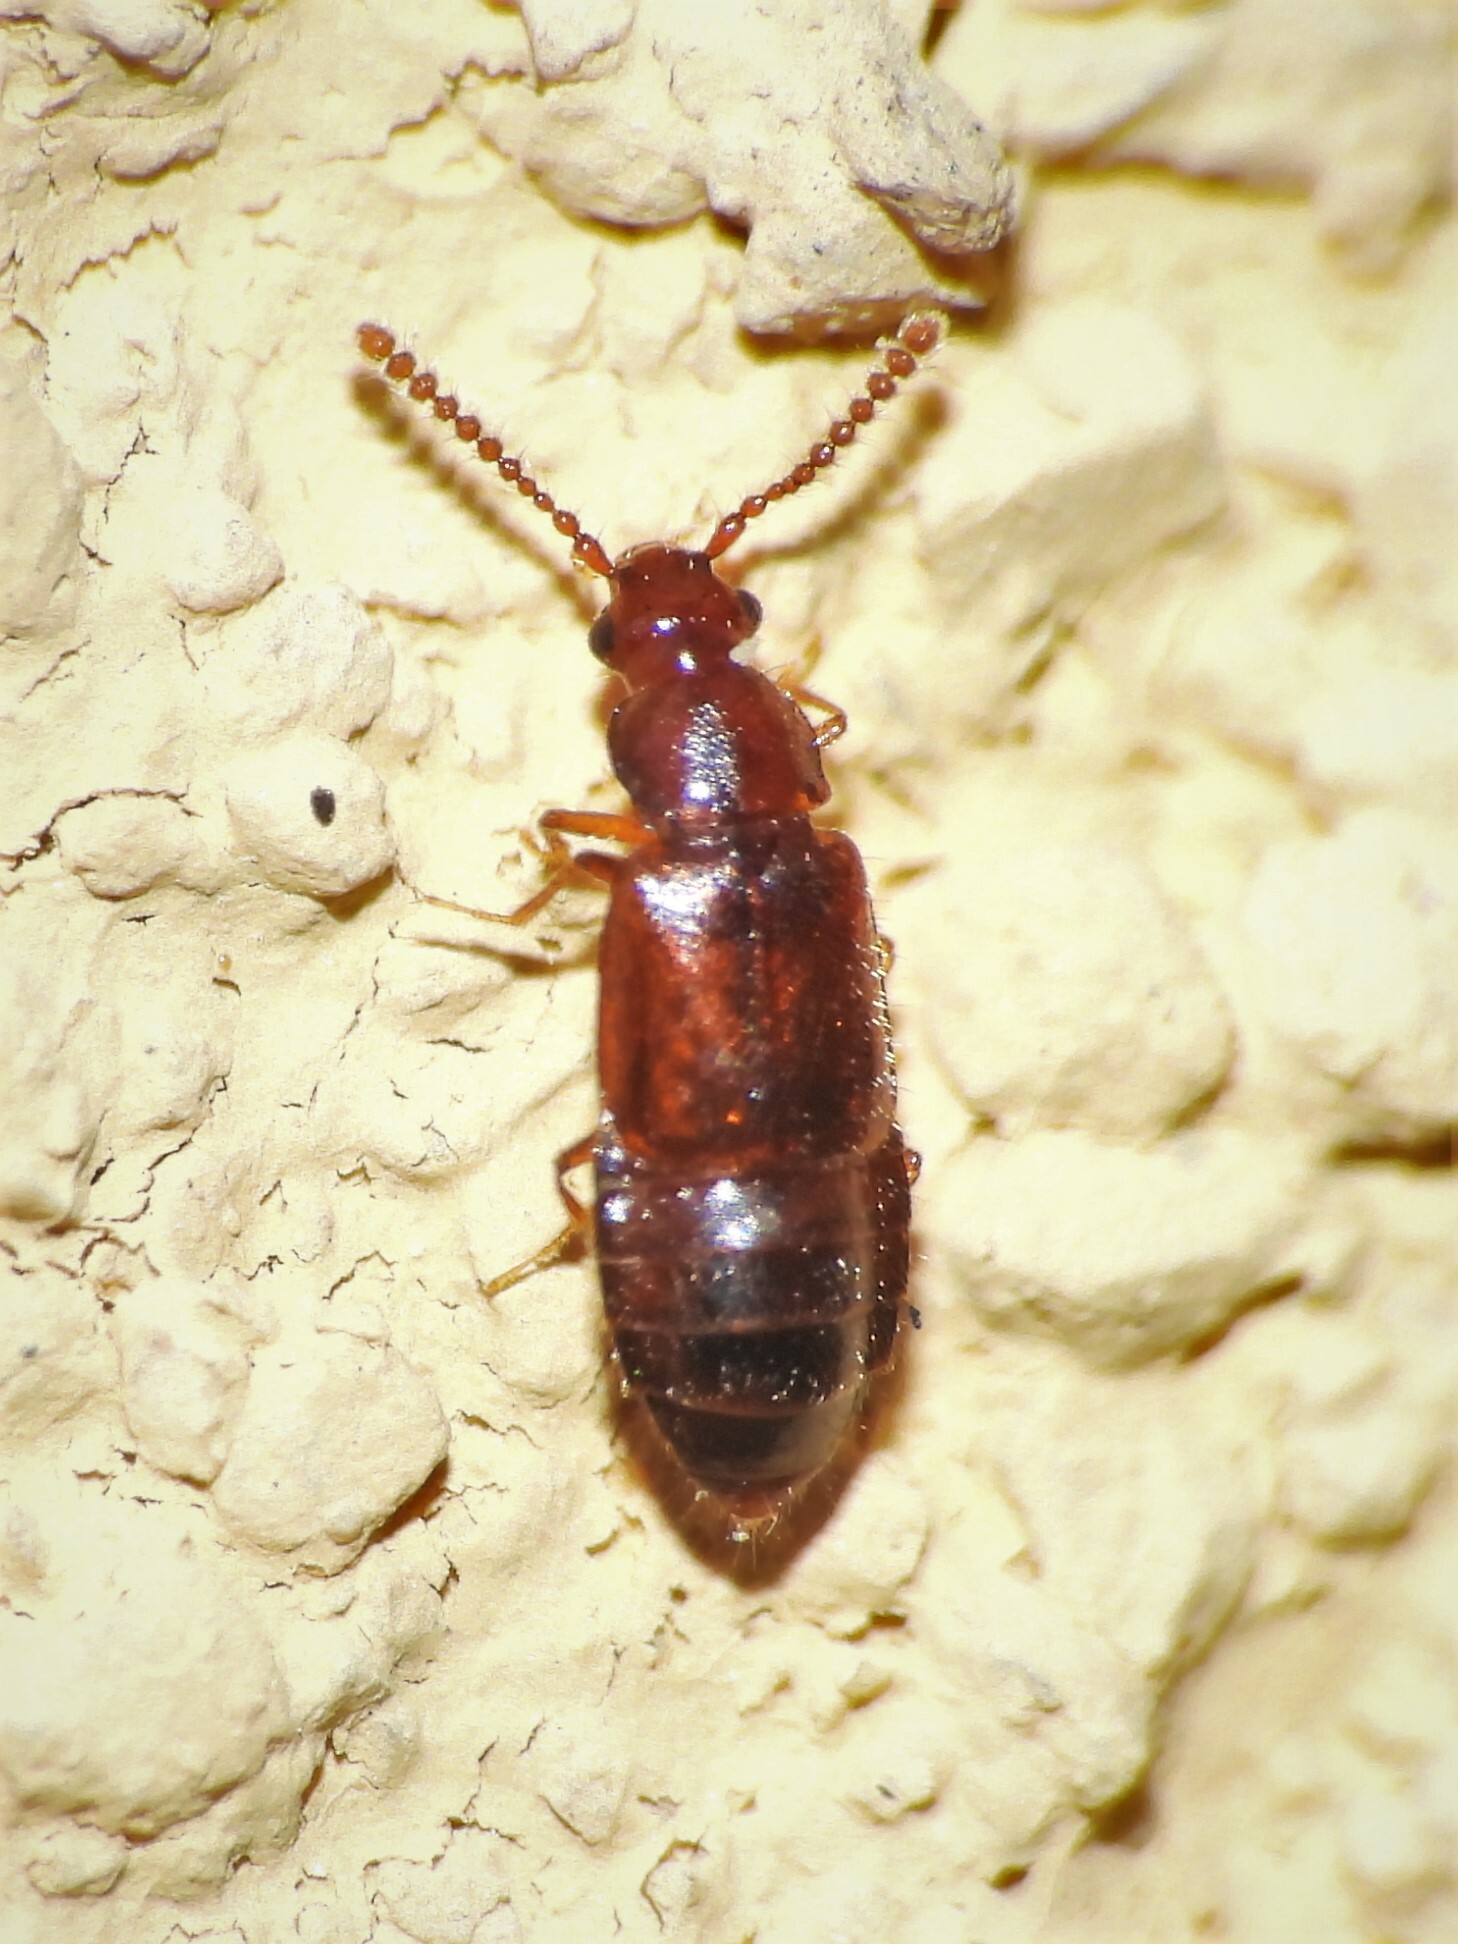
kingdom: Animalia
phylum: Arthropoda
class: Insecta
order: Coleoptera
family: Staphylinidae
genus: Hypopycna
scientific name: Hypopycna rufula
